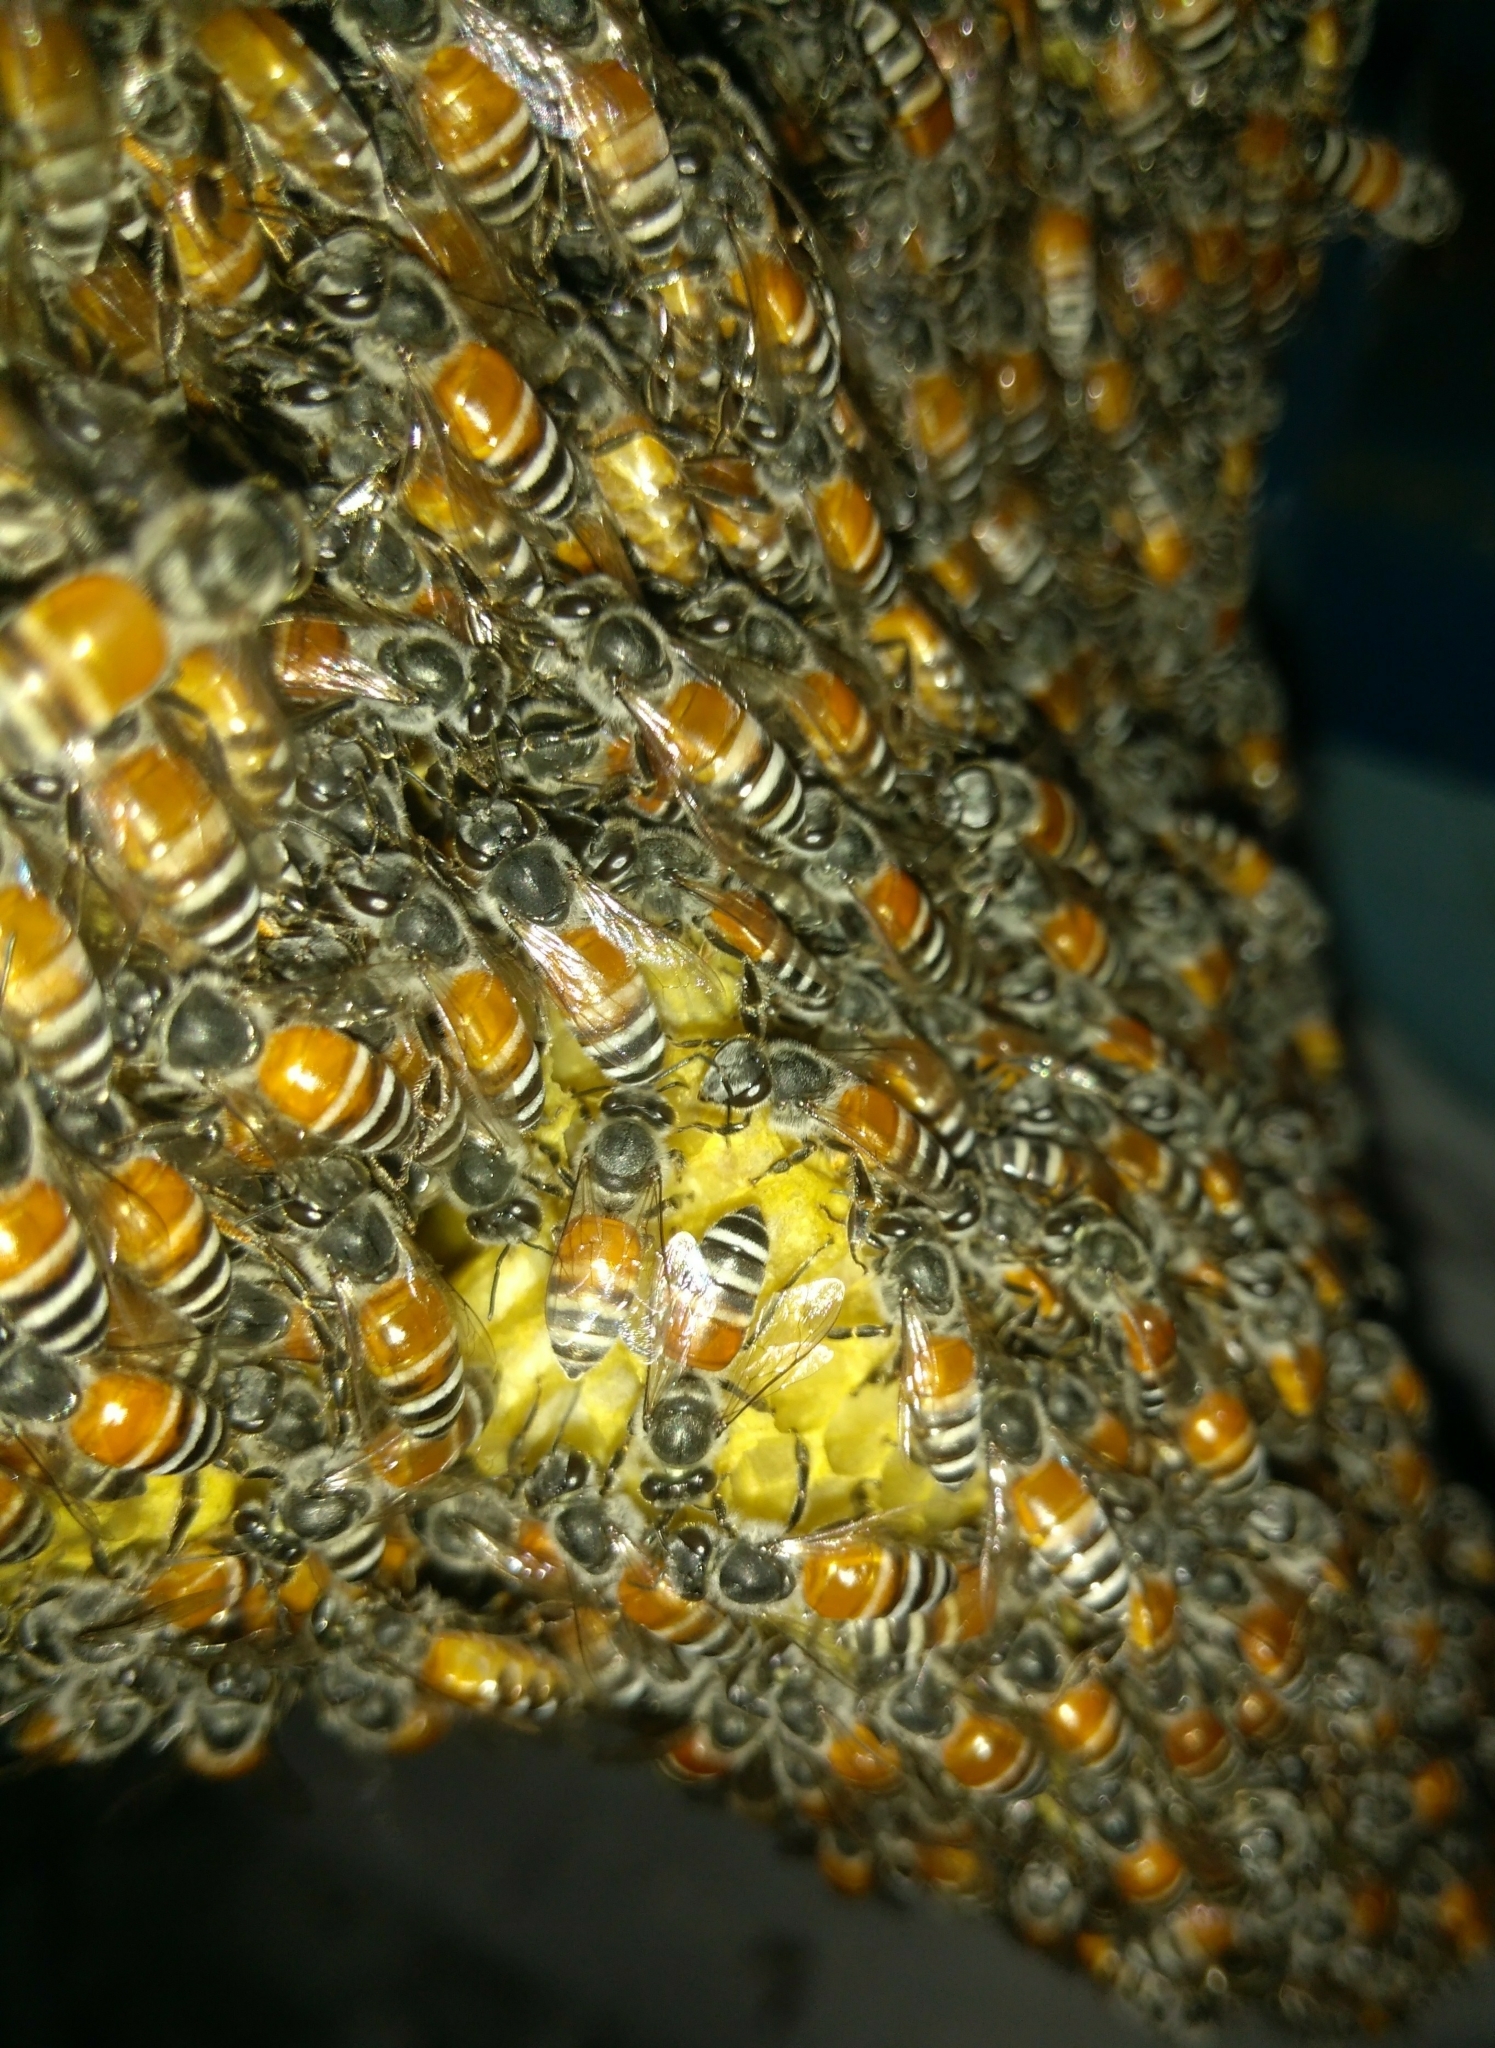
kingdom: Animalia
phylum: Arthropoda
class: Insecta
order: Hymenoptera
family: Apidae
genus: Apis
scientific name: Apis florea
